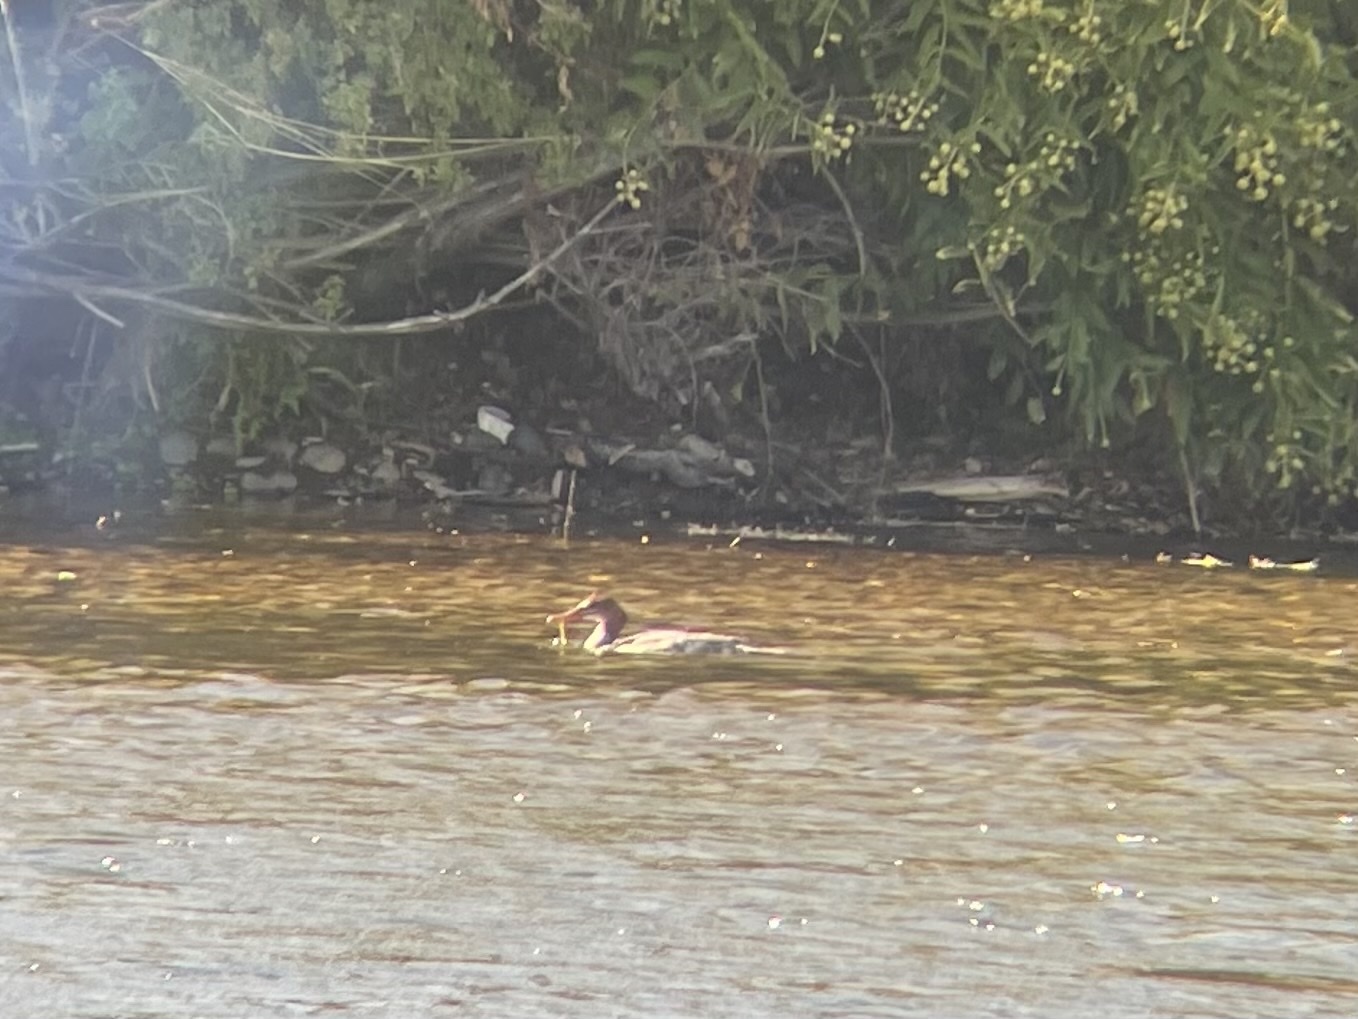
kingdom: Animalia
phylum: Chordata
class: Aves
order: Anseriformes
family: Anatidae
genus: Mergus
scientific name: Mergus merganser
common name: Common merganser
